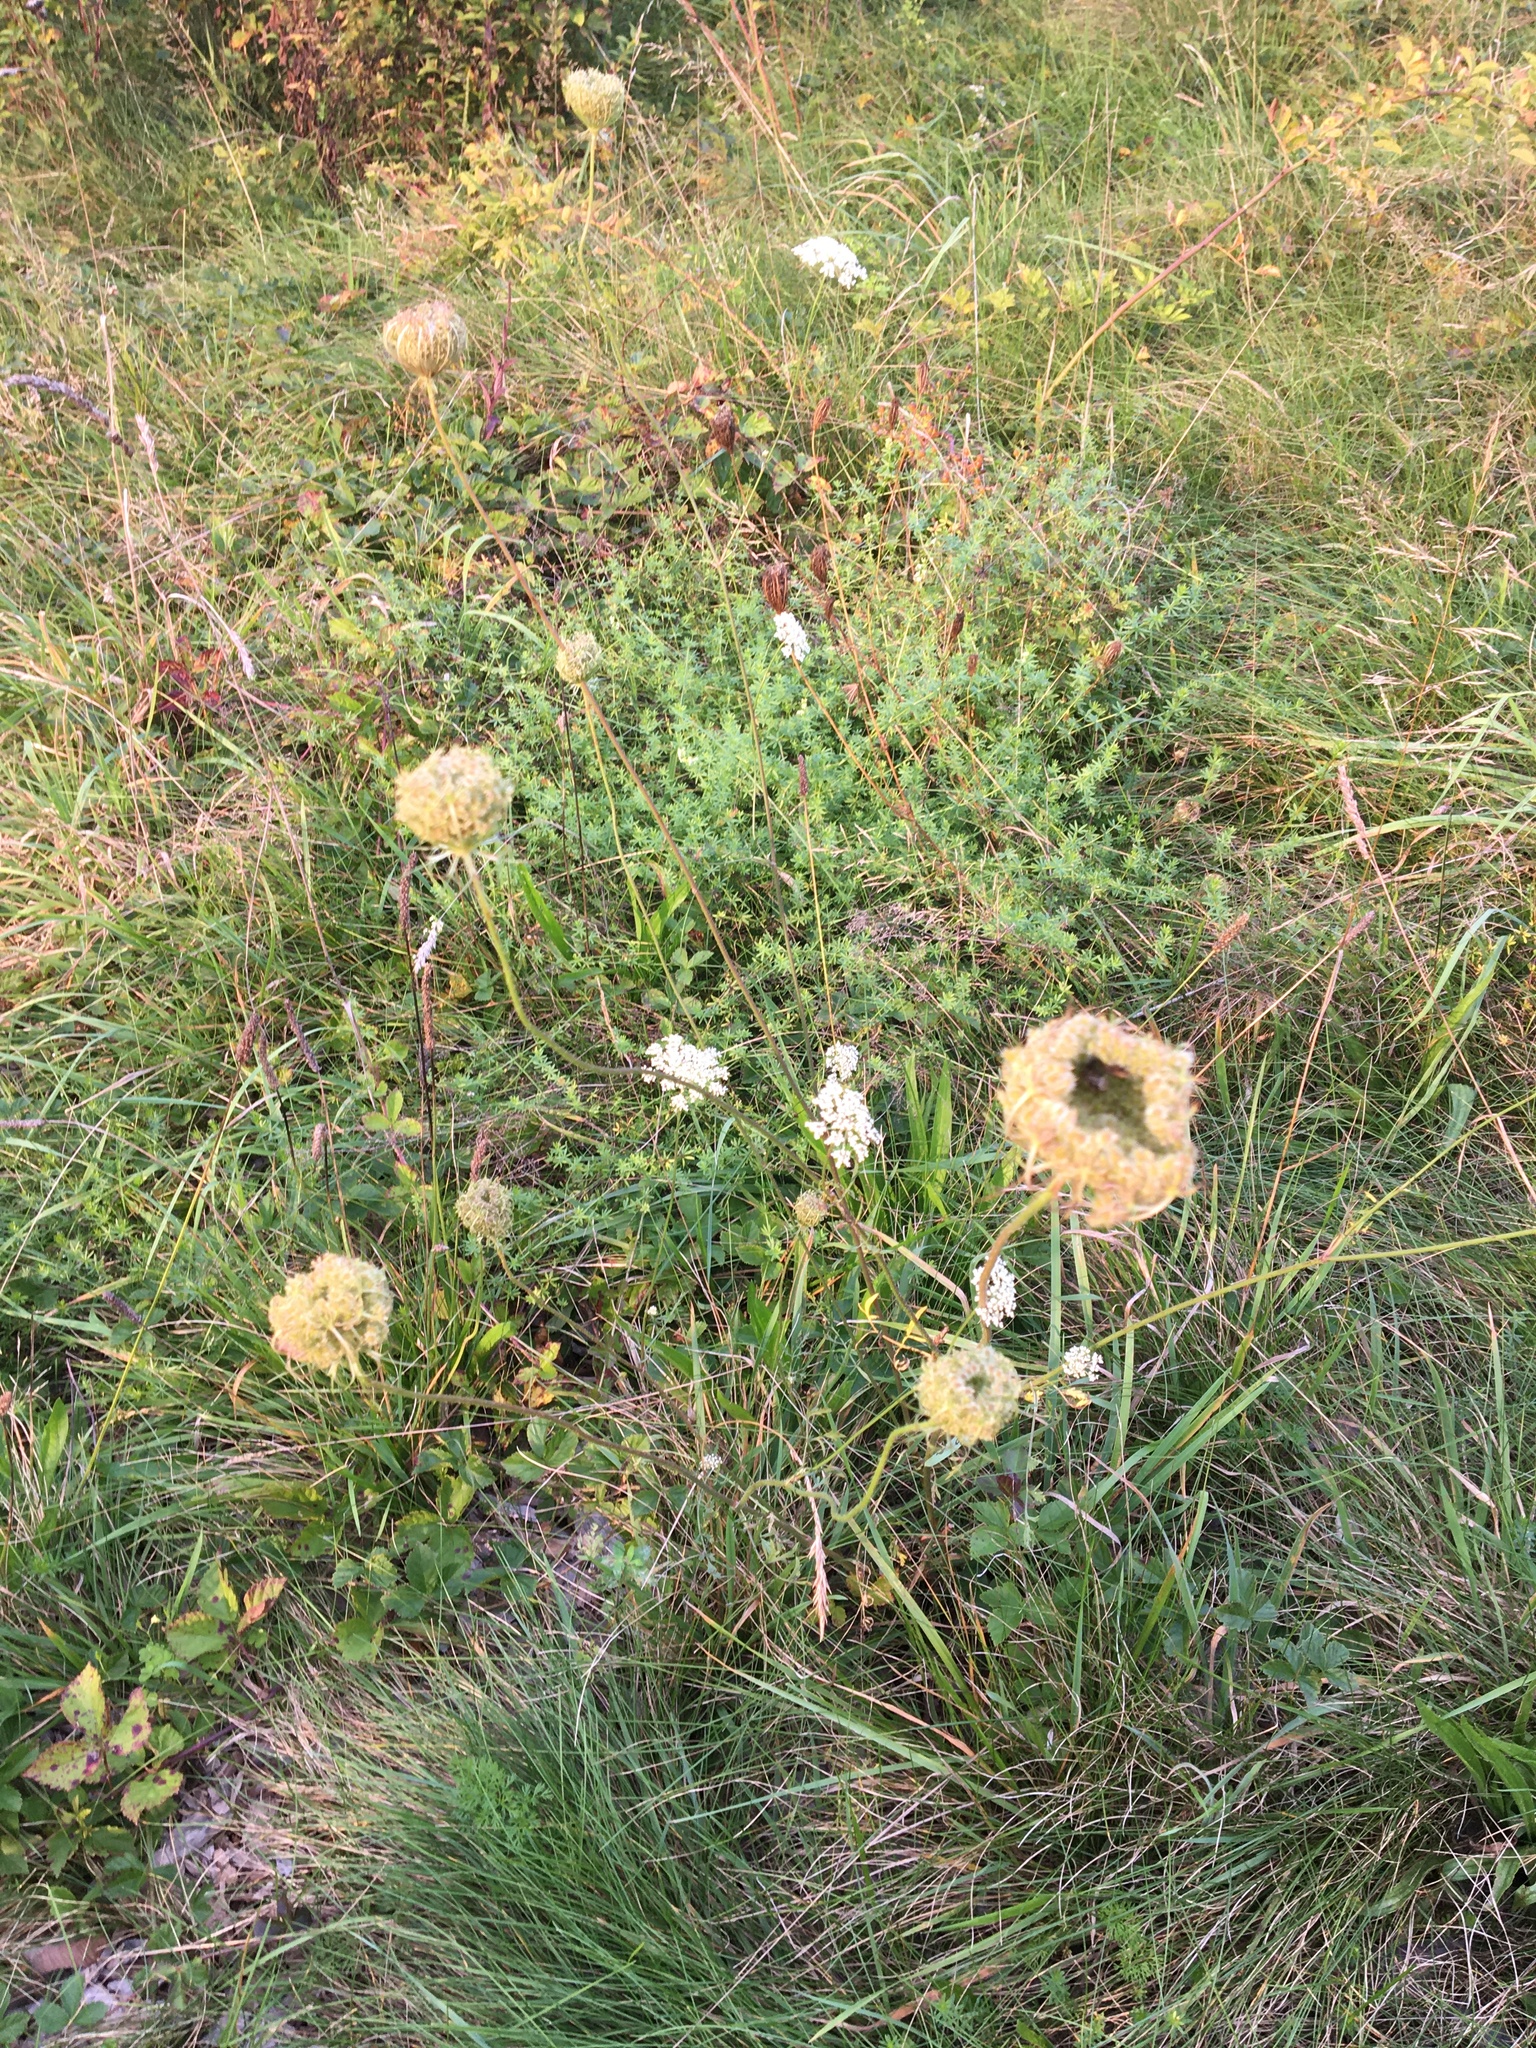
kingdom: Plantae
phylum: Tracheophyta
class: Magnoliopsida
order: Apiales
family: Apiaceae
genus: Daucus
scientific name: Daucus carota
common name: Wild carrot
